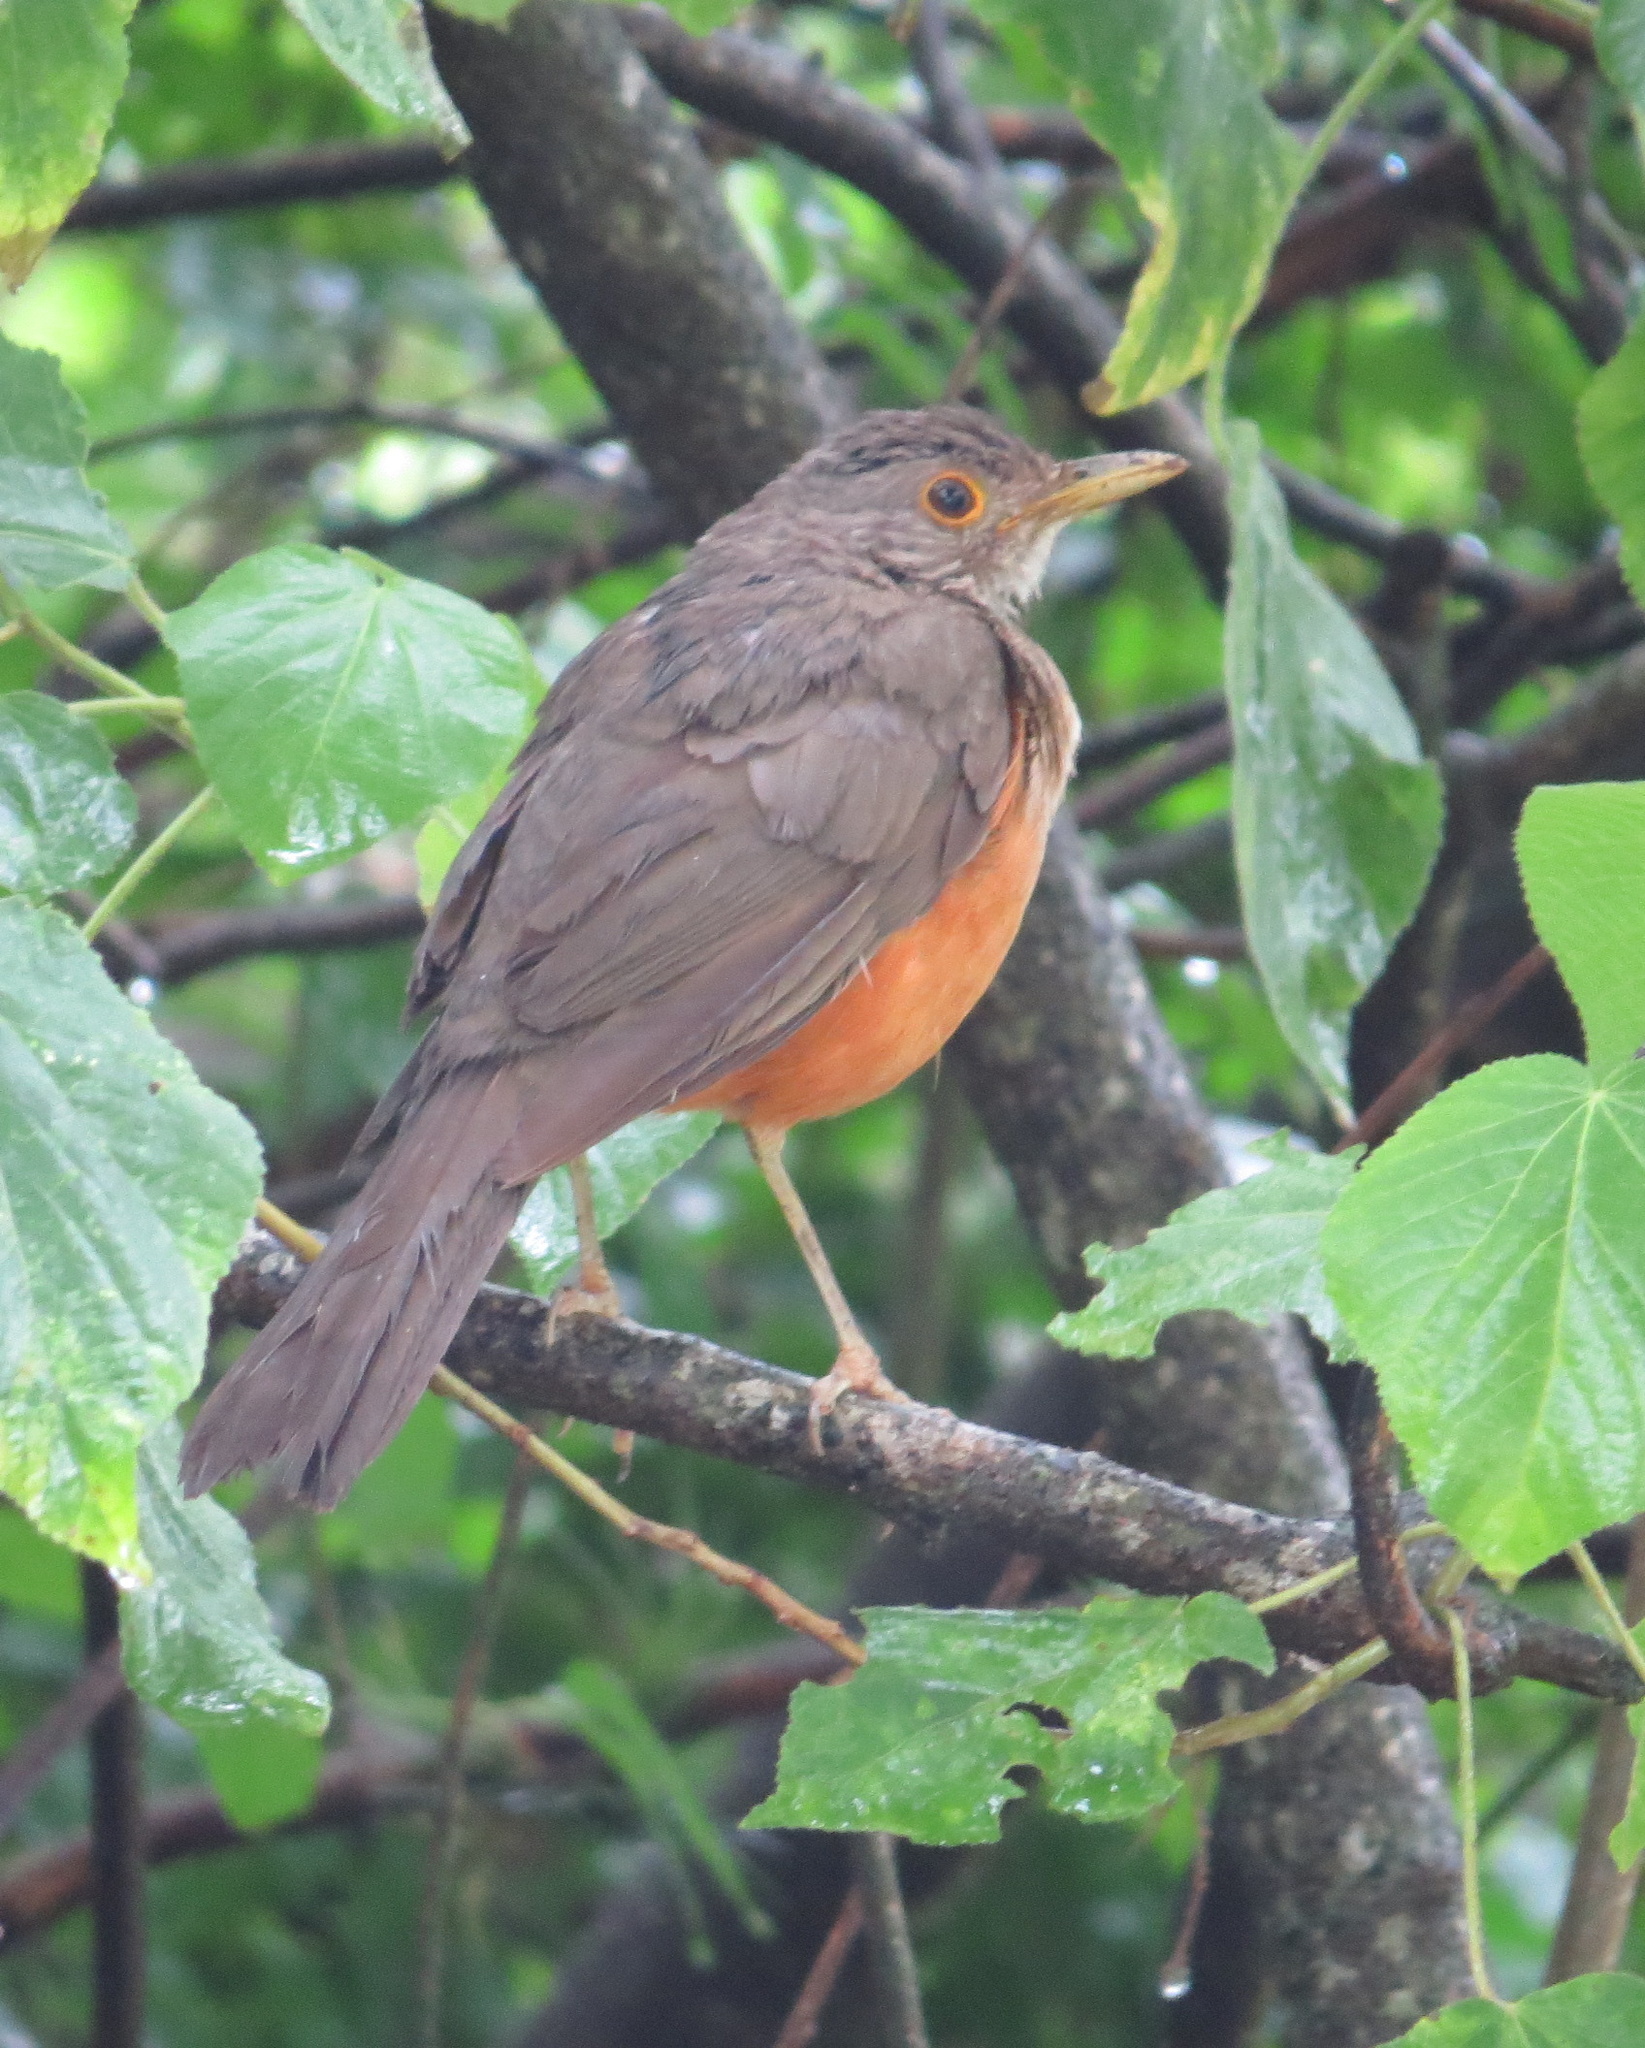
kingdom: Animalia
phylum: Chordata
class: Aves
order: Passeriformes
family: Turdidae
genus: Turdus
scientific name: Turdus rufiventris
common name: Rufous-bellied thrush
